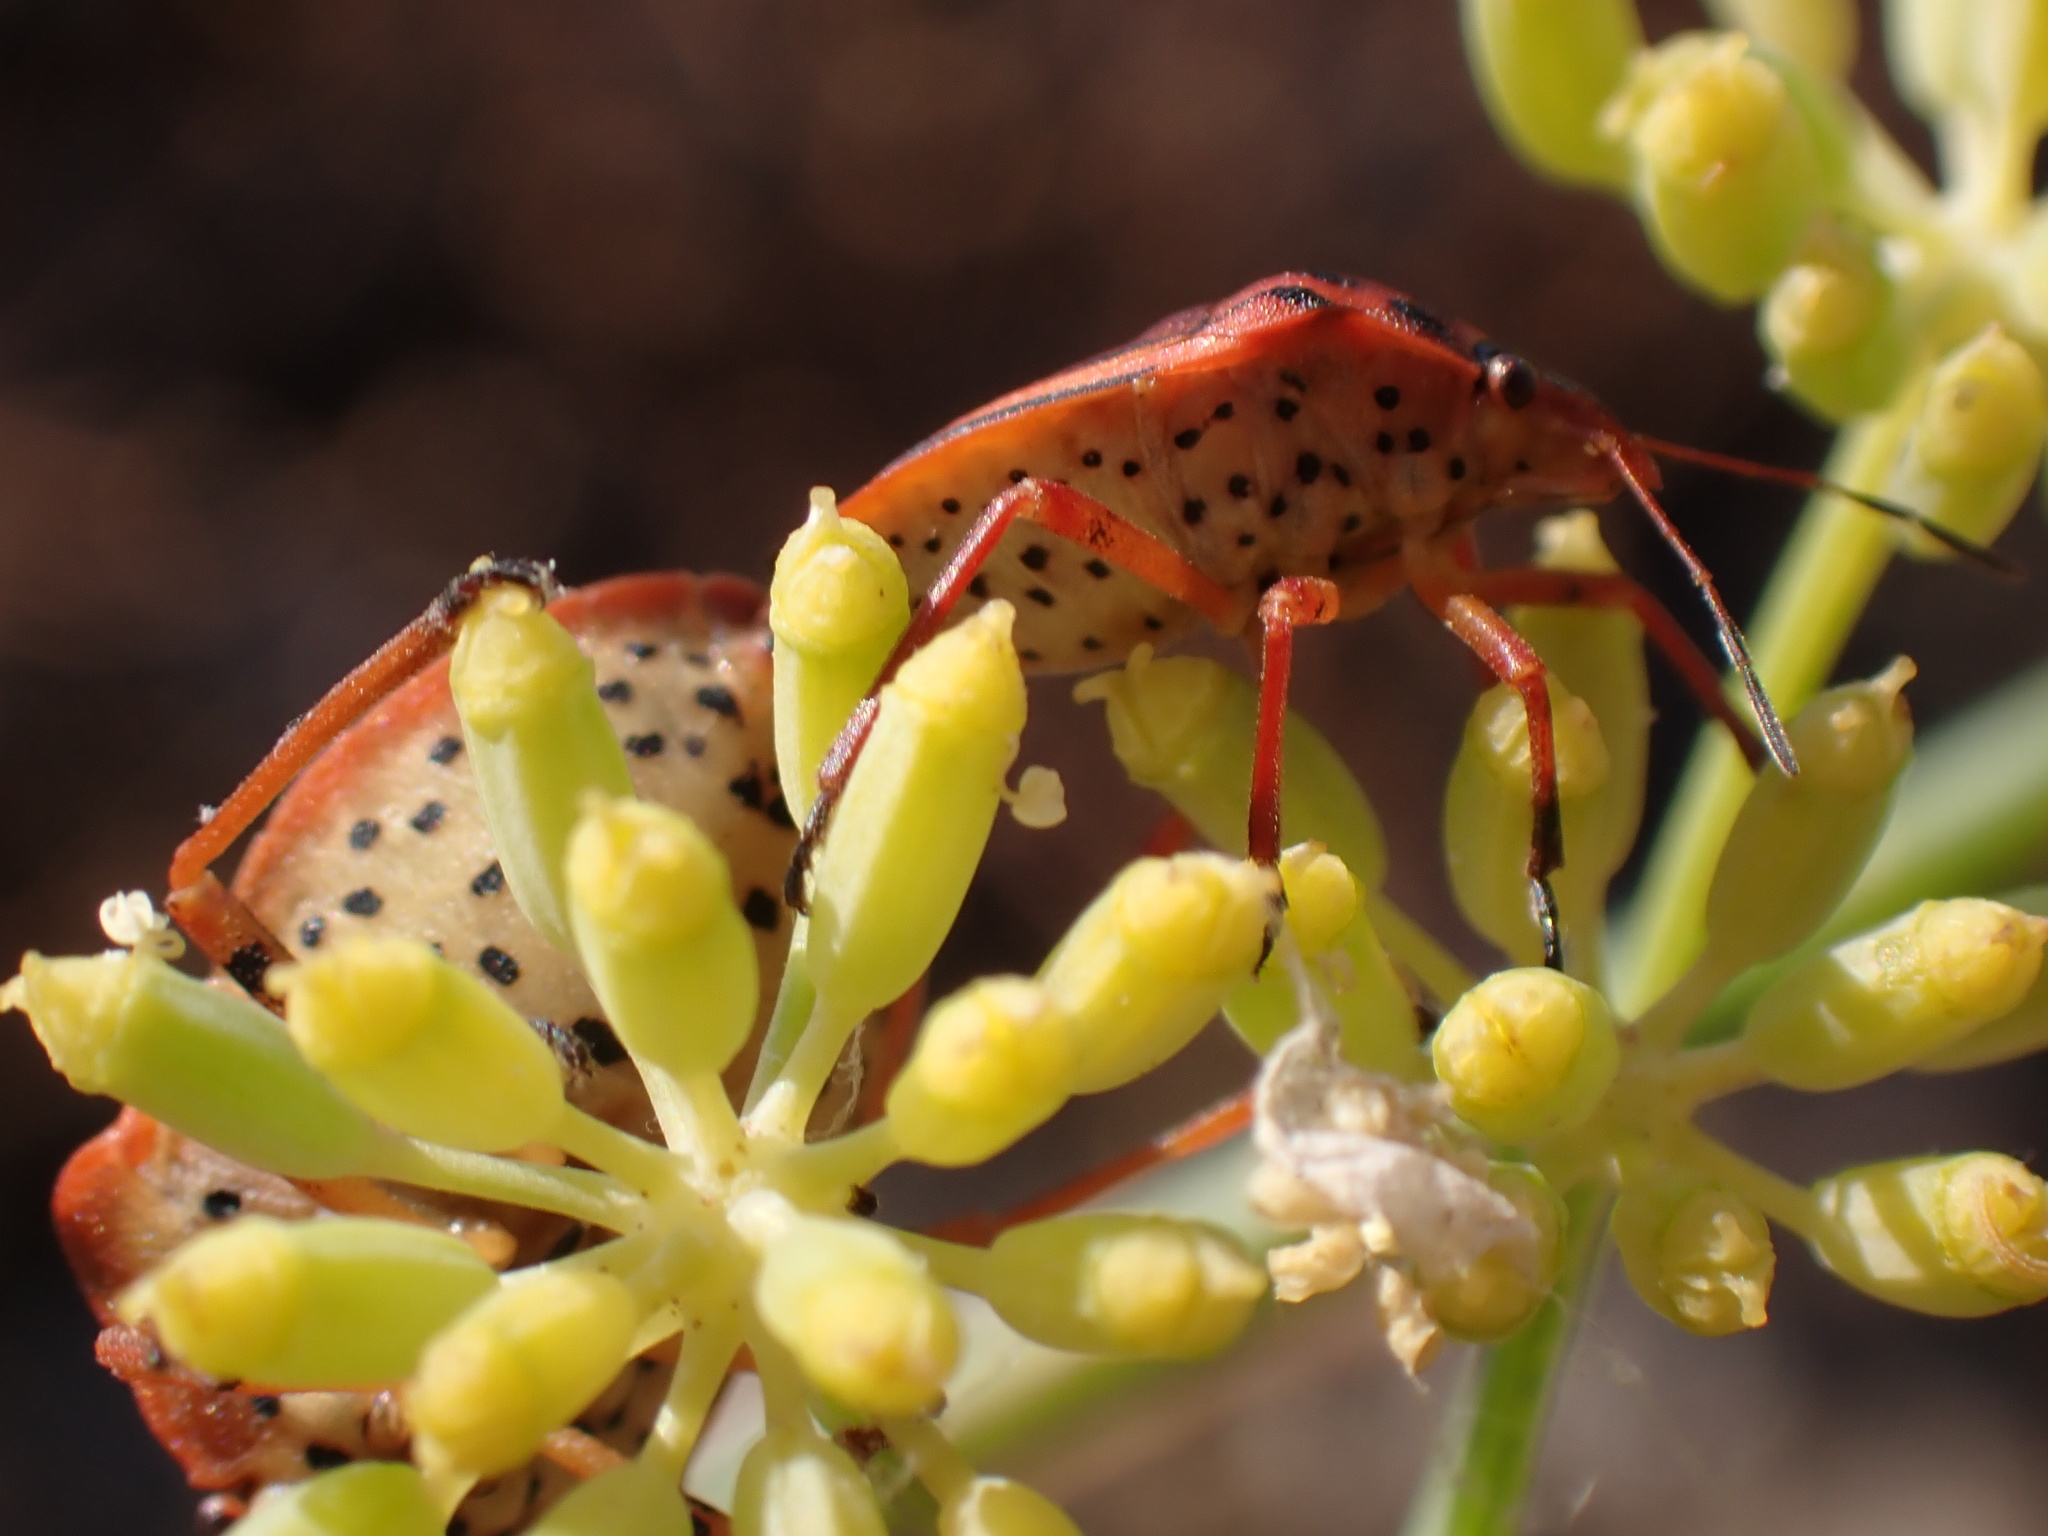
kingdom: Animalia
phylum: Arthropoda
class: Insecta
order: Hemiptera
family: Pentatomidae
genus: Graphosoma
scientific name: Graphosoma semipunctatum
